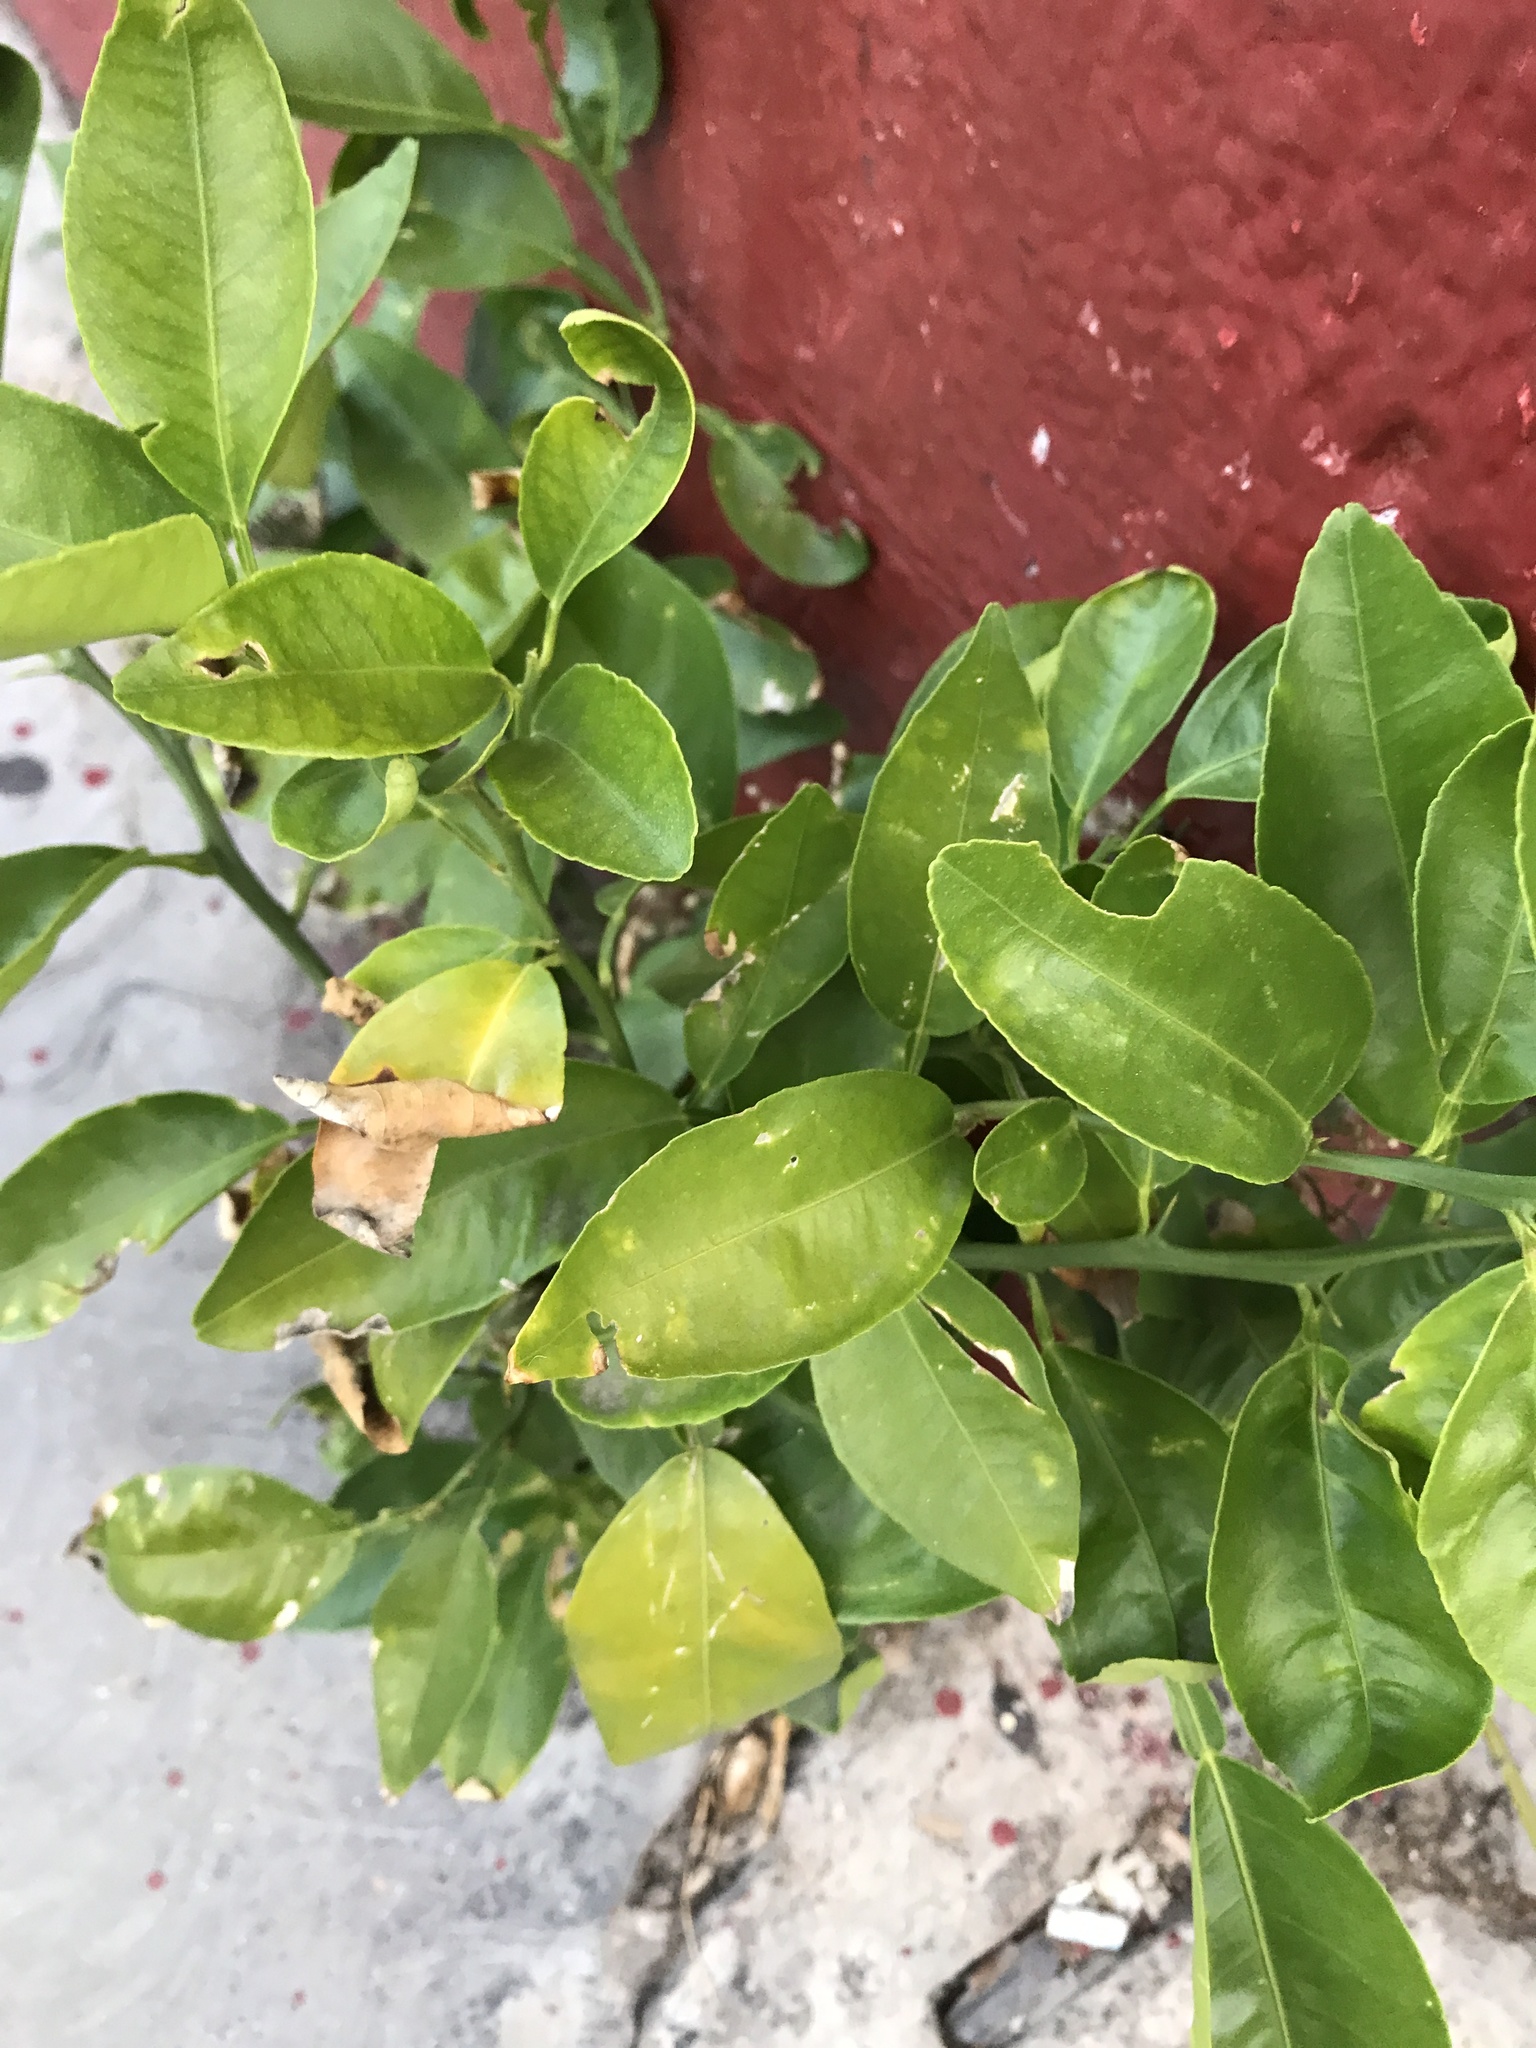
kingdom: Plantae
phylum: Tracheophyta
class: Magnoliopsida
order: Sapindales
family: Rutaceae
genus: Citrus
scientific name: Citrus aurantiifolia
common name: Key lime
